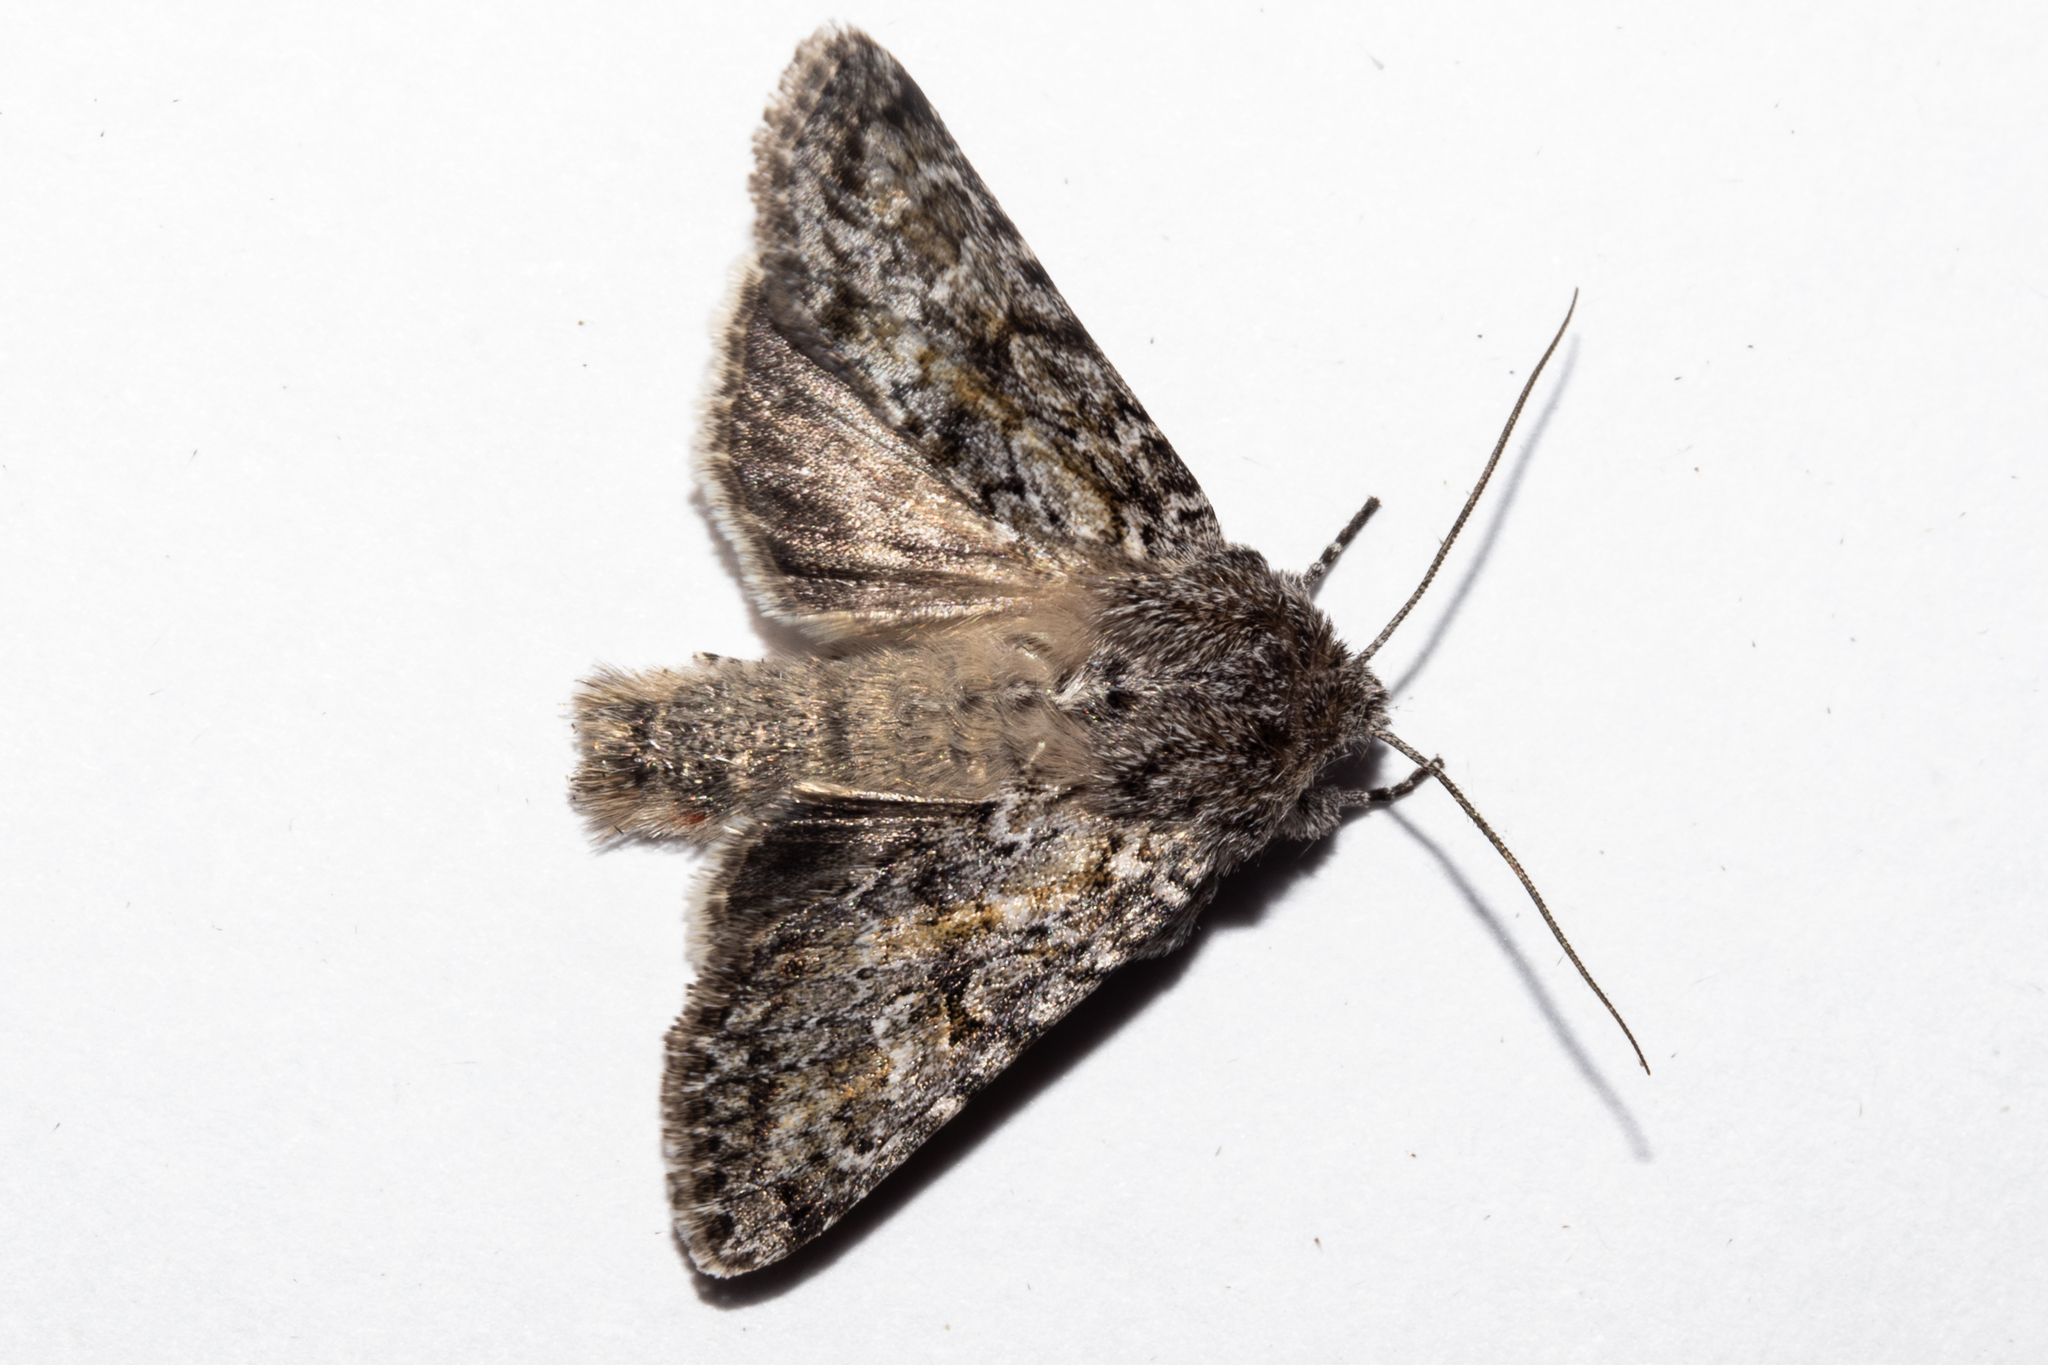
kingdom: Animalia
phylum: Arthropoda
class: Insecta
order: Lepidoptera
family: Noctuidae
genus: Physetica
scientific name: Physetica cucullina
